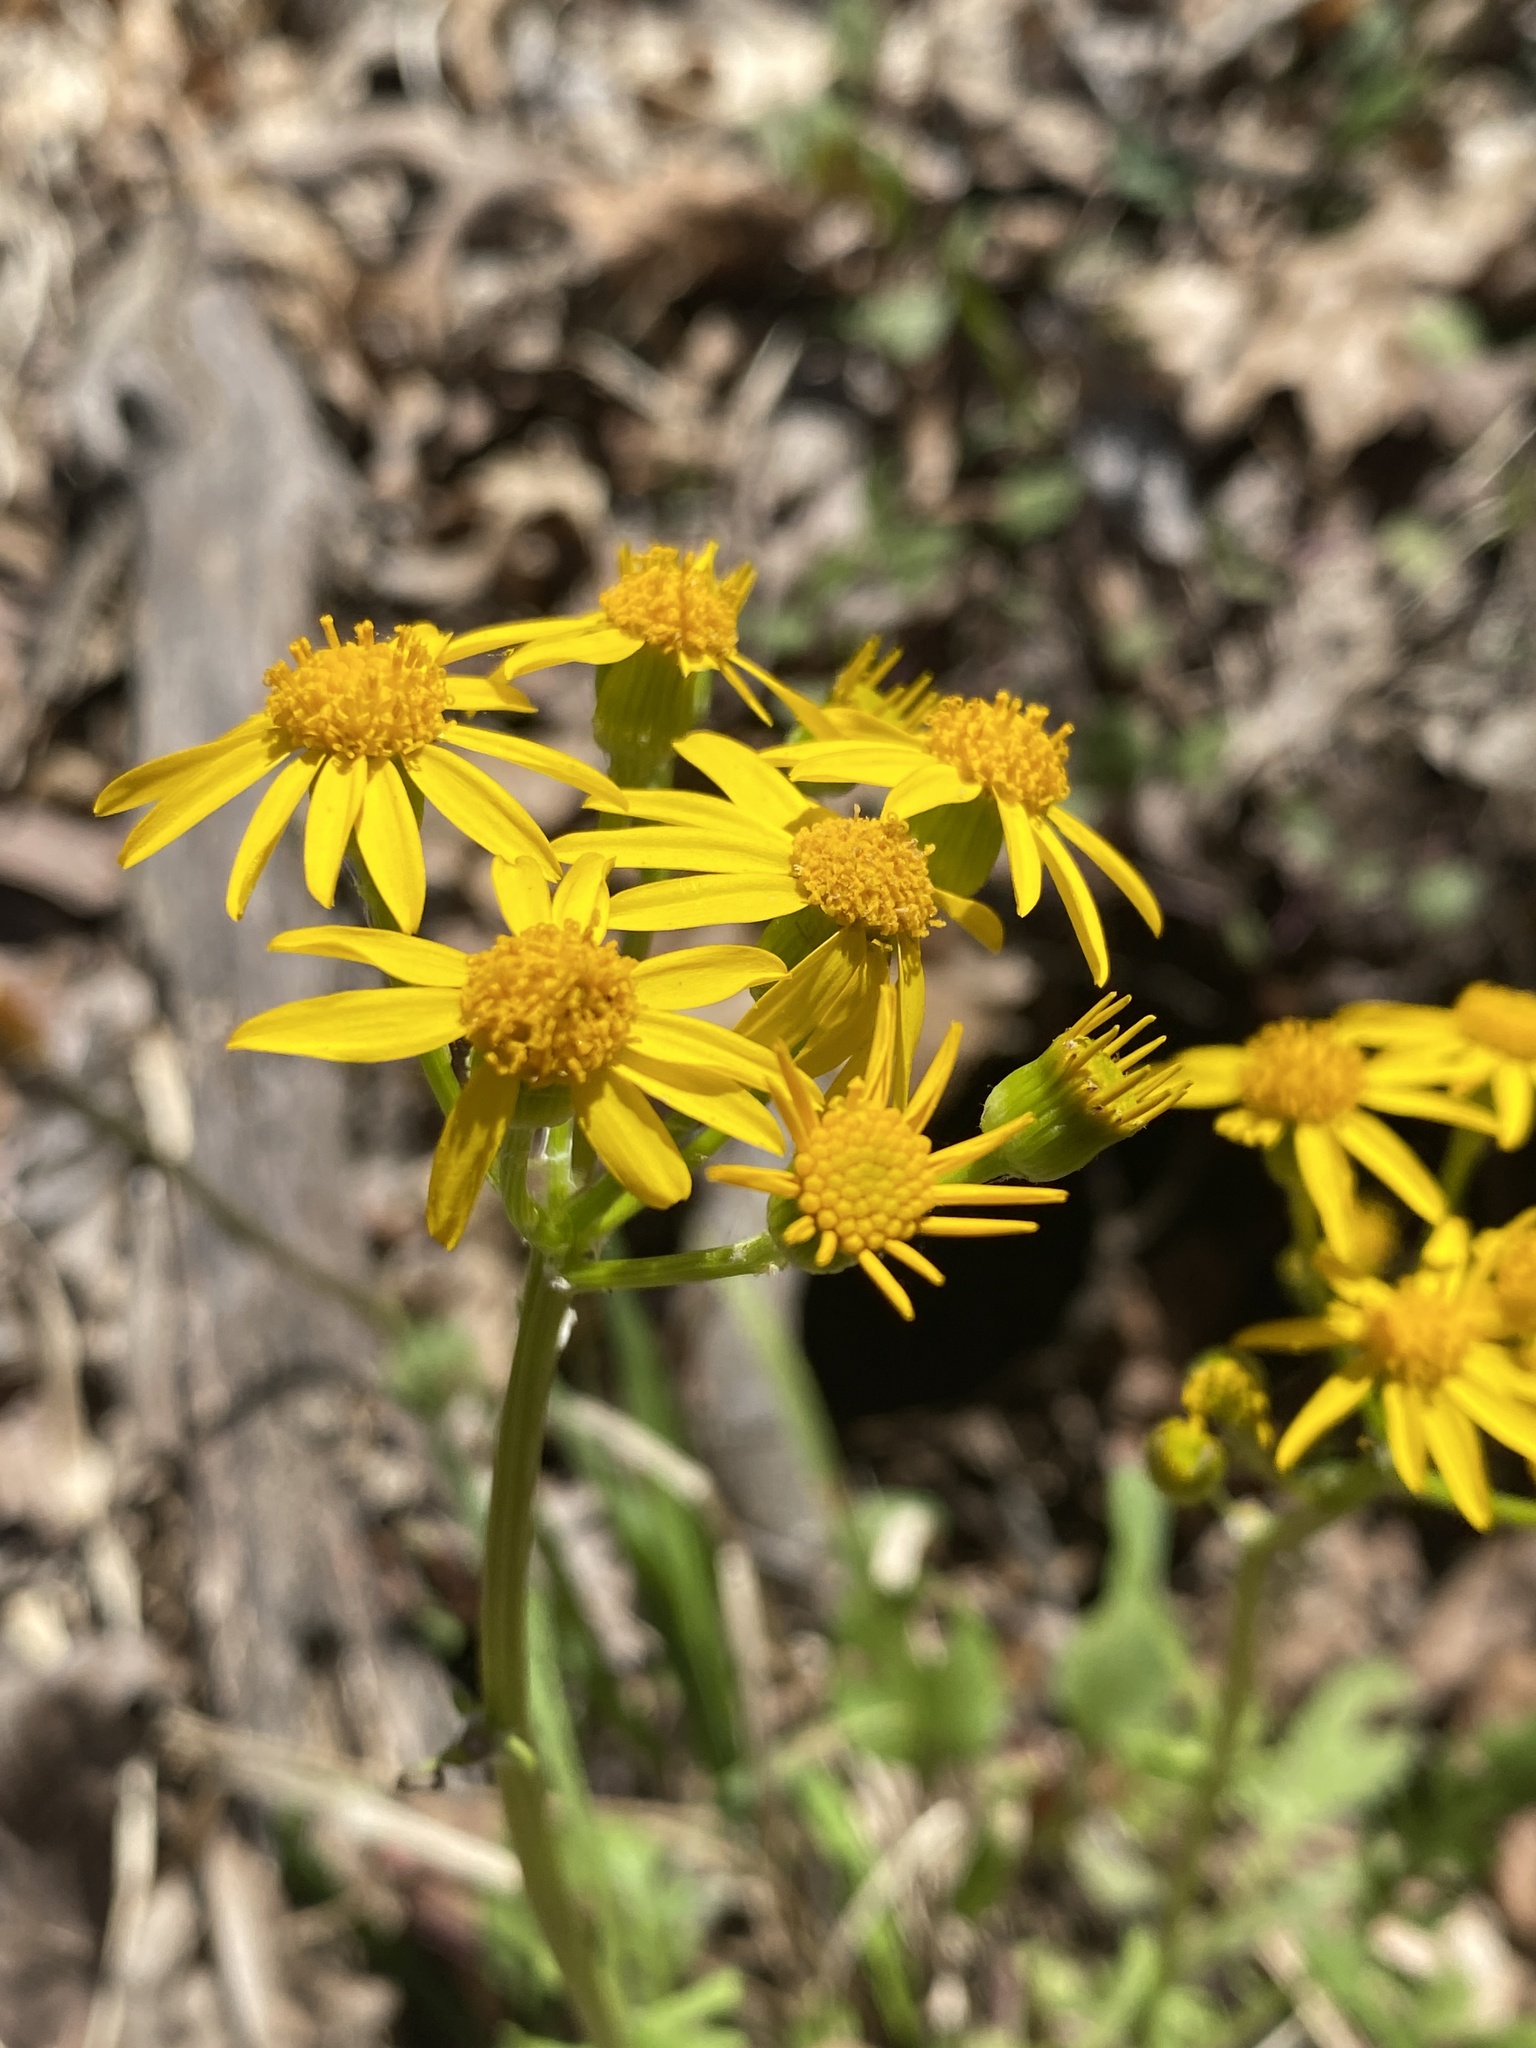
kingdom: Plantae
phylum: Tracheophyta
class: Magnoliopsida
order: Asterales
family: Asteraceae
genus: Packera
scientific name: Packera obovata
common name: Round-leaf ragwort
